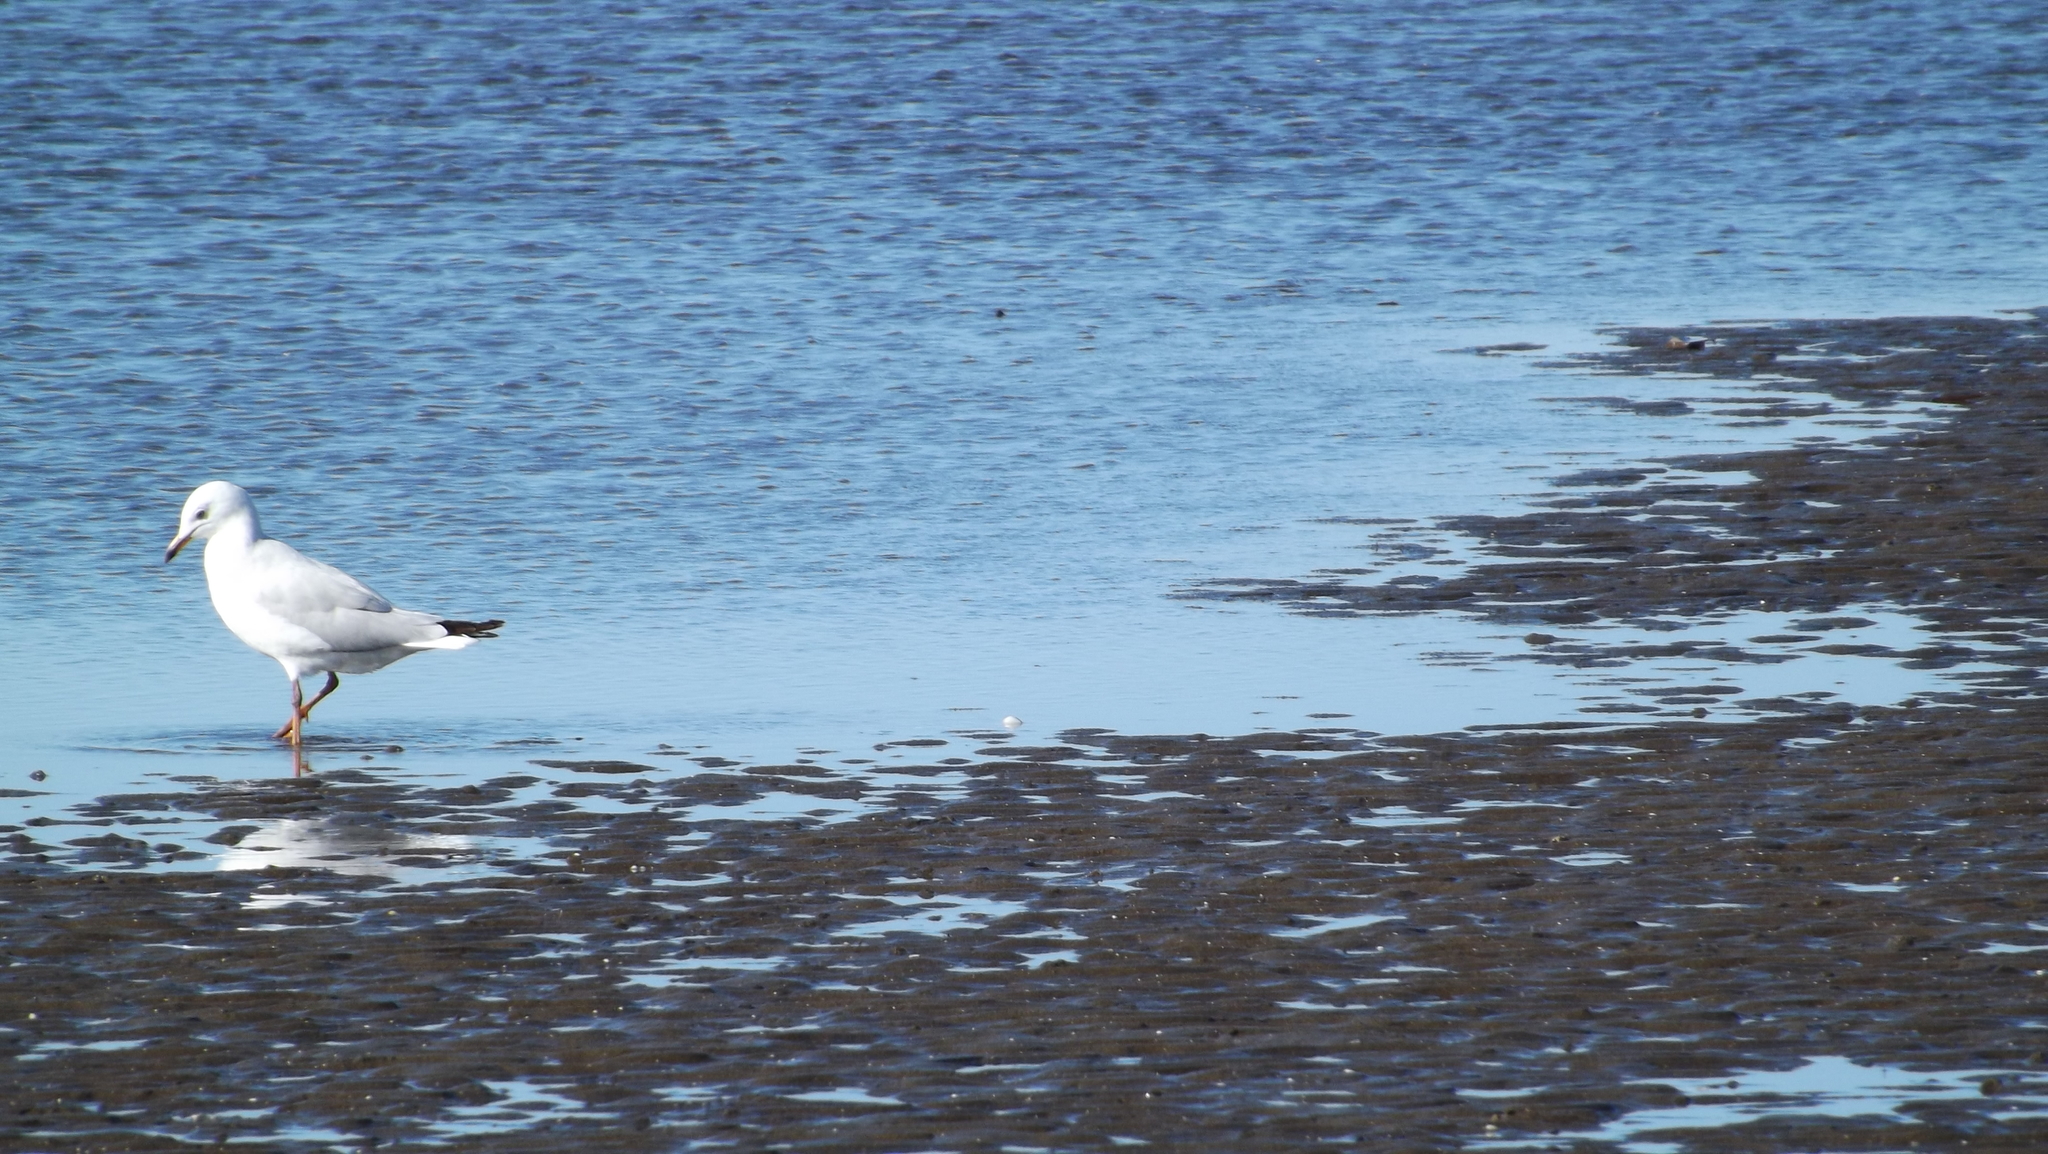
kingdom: Animalia
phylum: Chordata
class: Aves
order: Charadriiformes
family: Laridae
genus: Chroicocephalus
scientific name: Chroicocephalus novaehollandiae
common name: Silver gull
